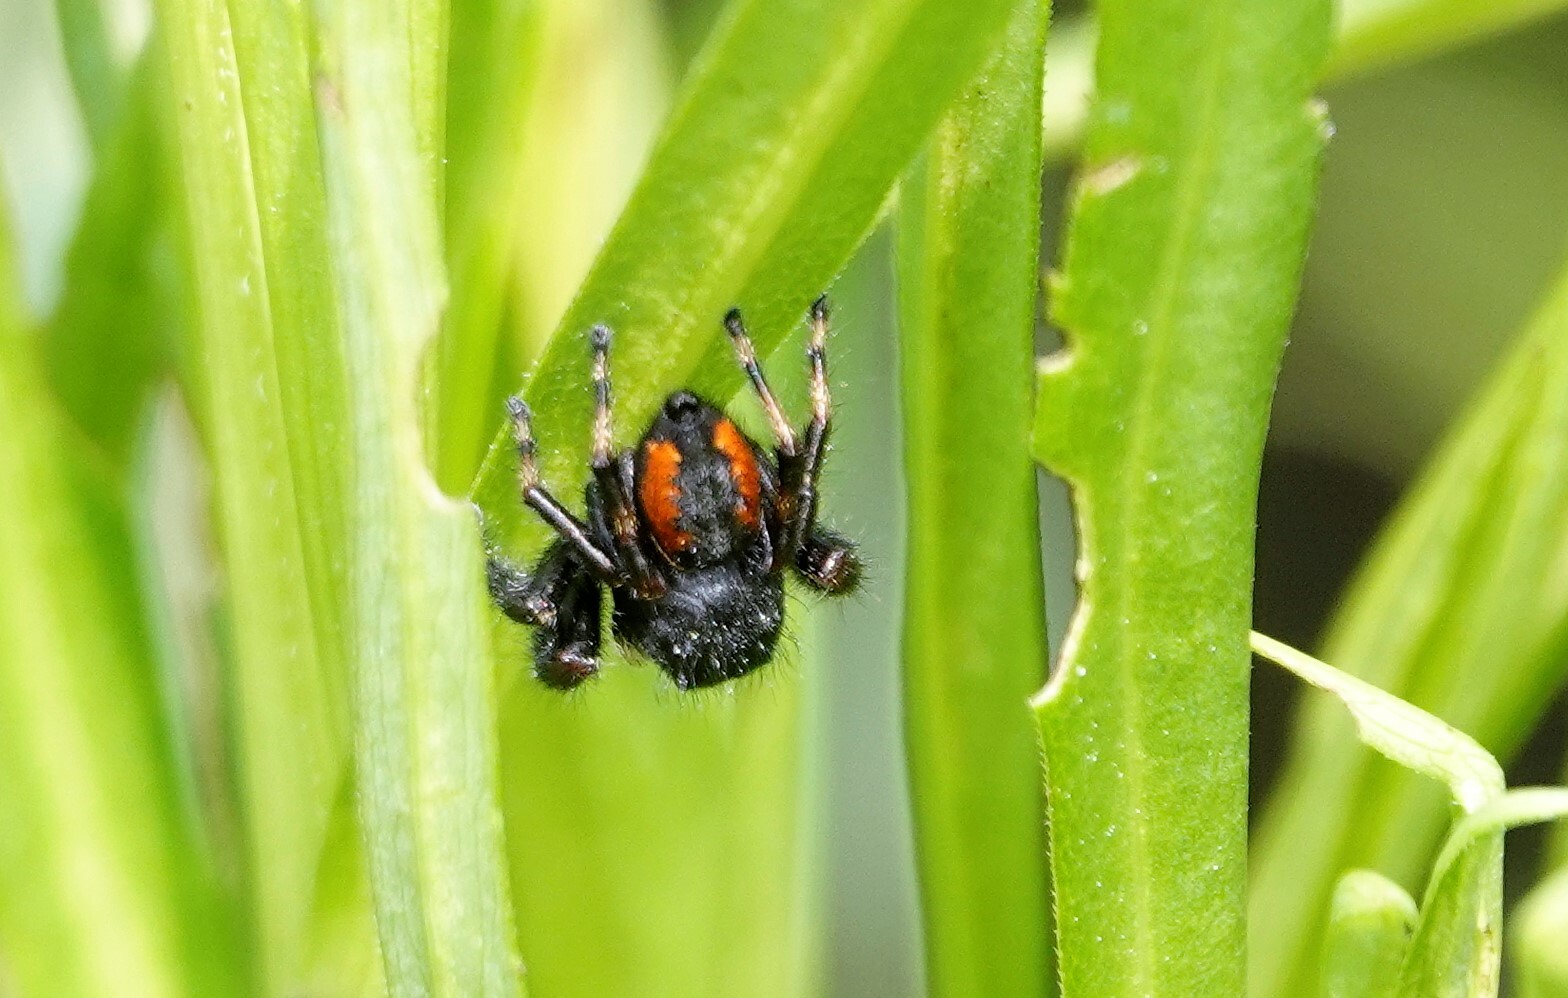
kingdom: Animalia
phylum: Arthropoda
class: Arachnida
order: Araneae
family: Salticidae
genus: Phidippus
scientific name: Phidippus clarus
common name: Brilliant jumping spider
